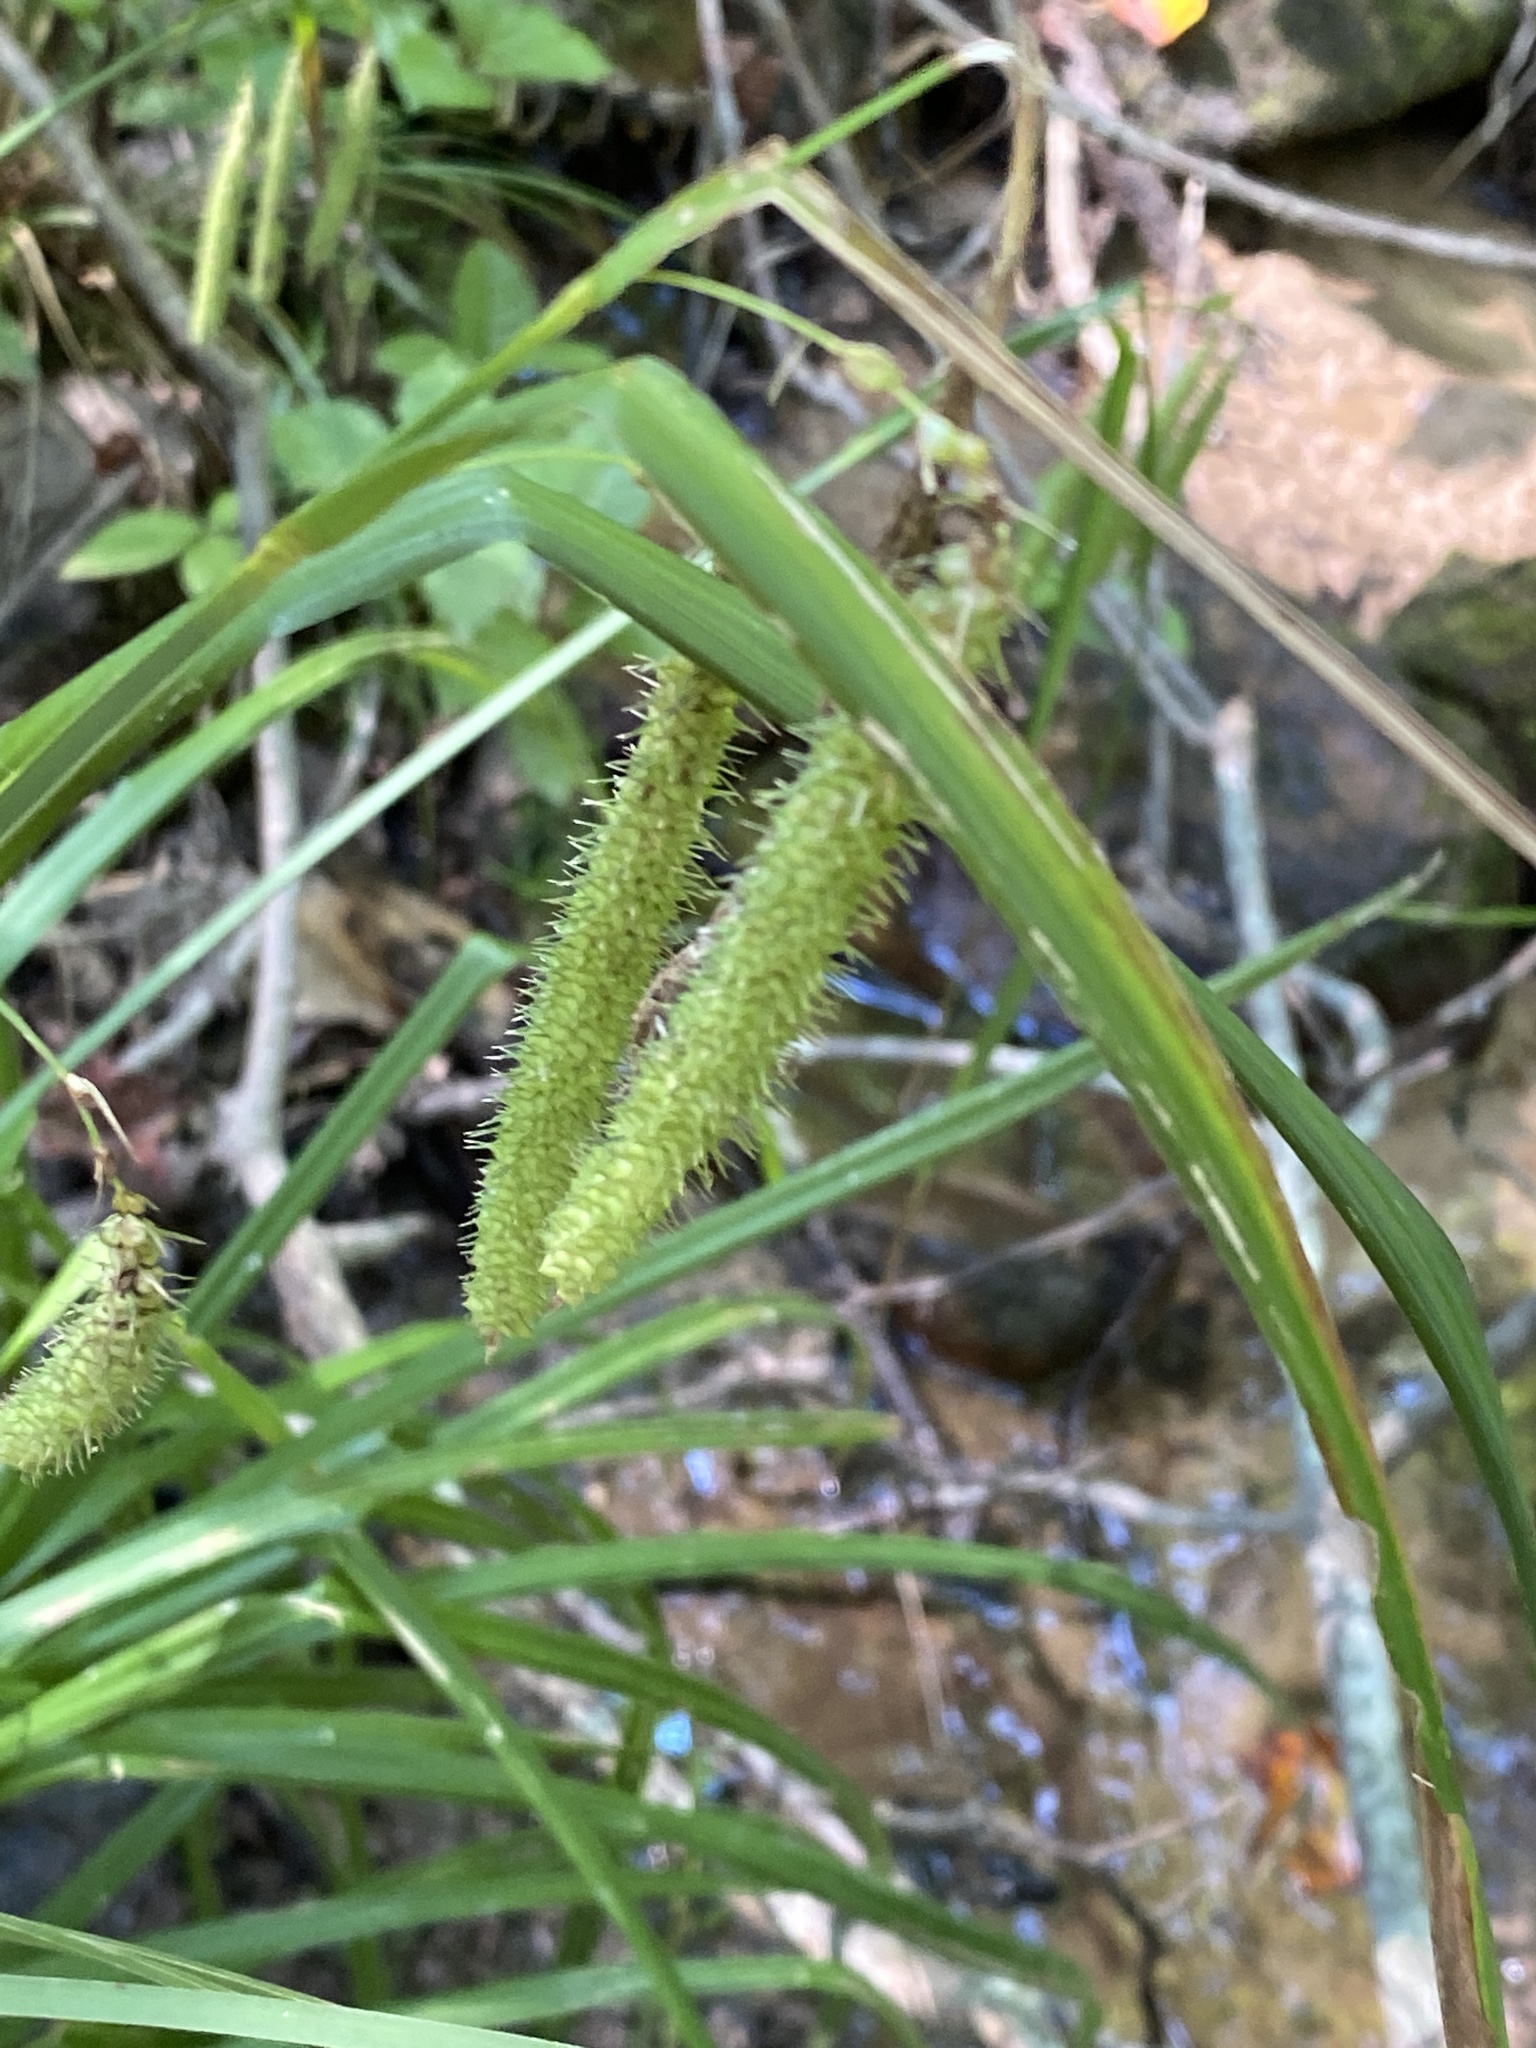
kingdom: Plantae
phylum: Tracheophyta
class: Liliopsida
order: Poales
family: Cyperaceae
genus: Carex
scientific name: Carex crinita
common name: Fringed sedge
